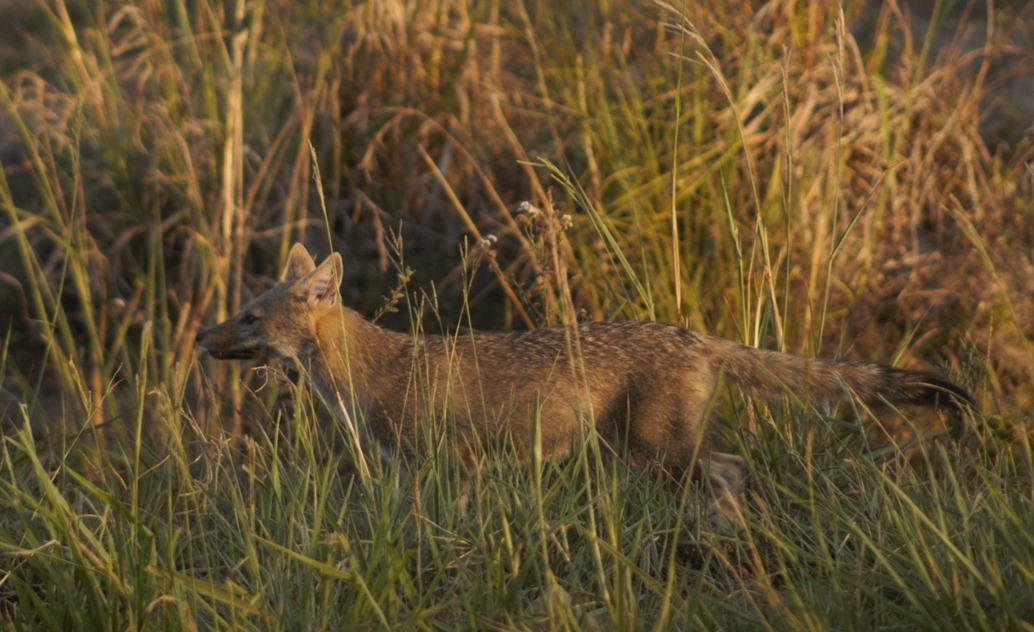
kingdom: Animalia
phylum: Chordata
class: Mammalia
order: Carnivora
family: Canidae
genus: Lycalopex
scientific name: Lycalopex gymnocercus
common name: Pampas fox
